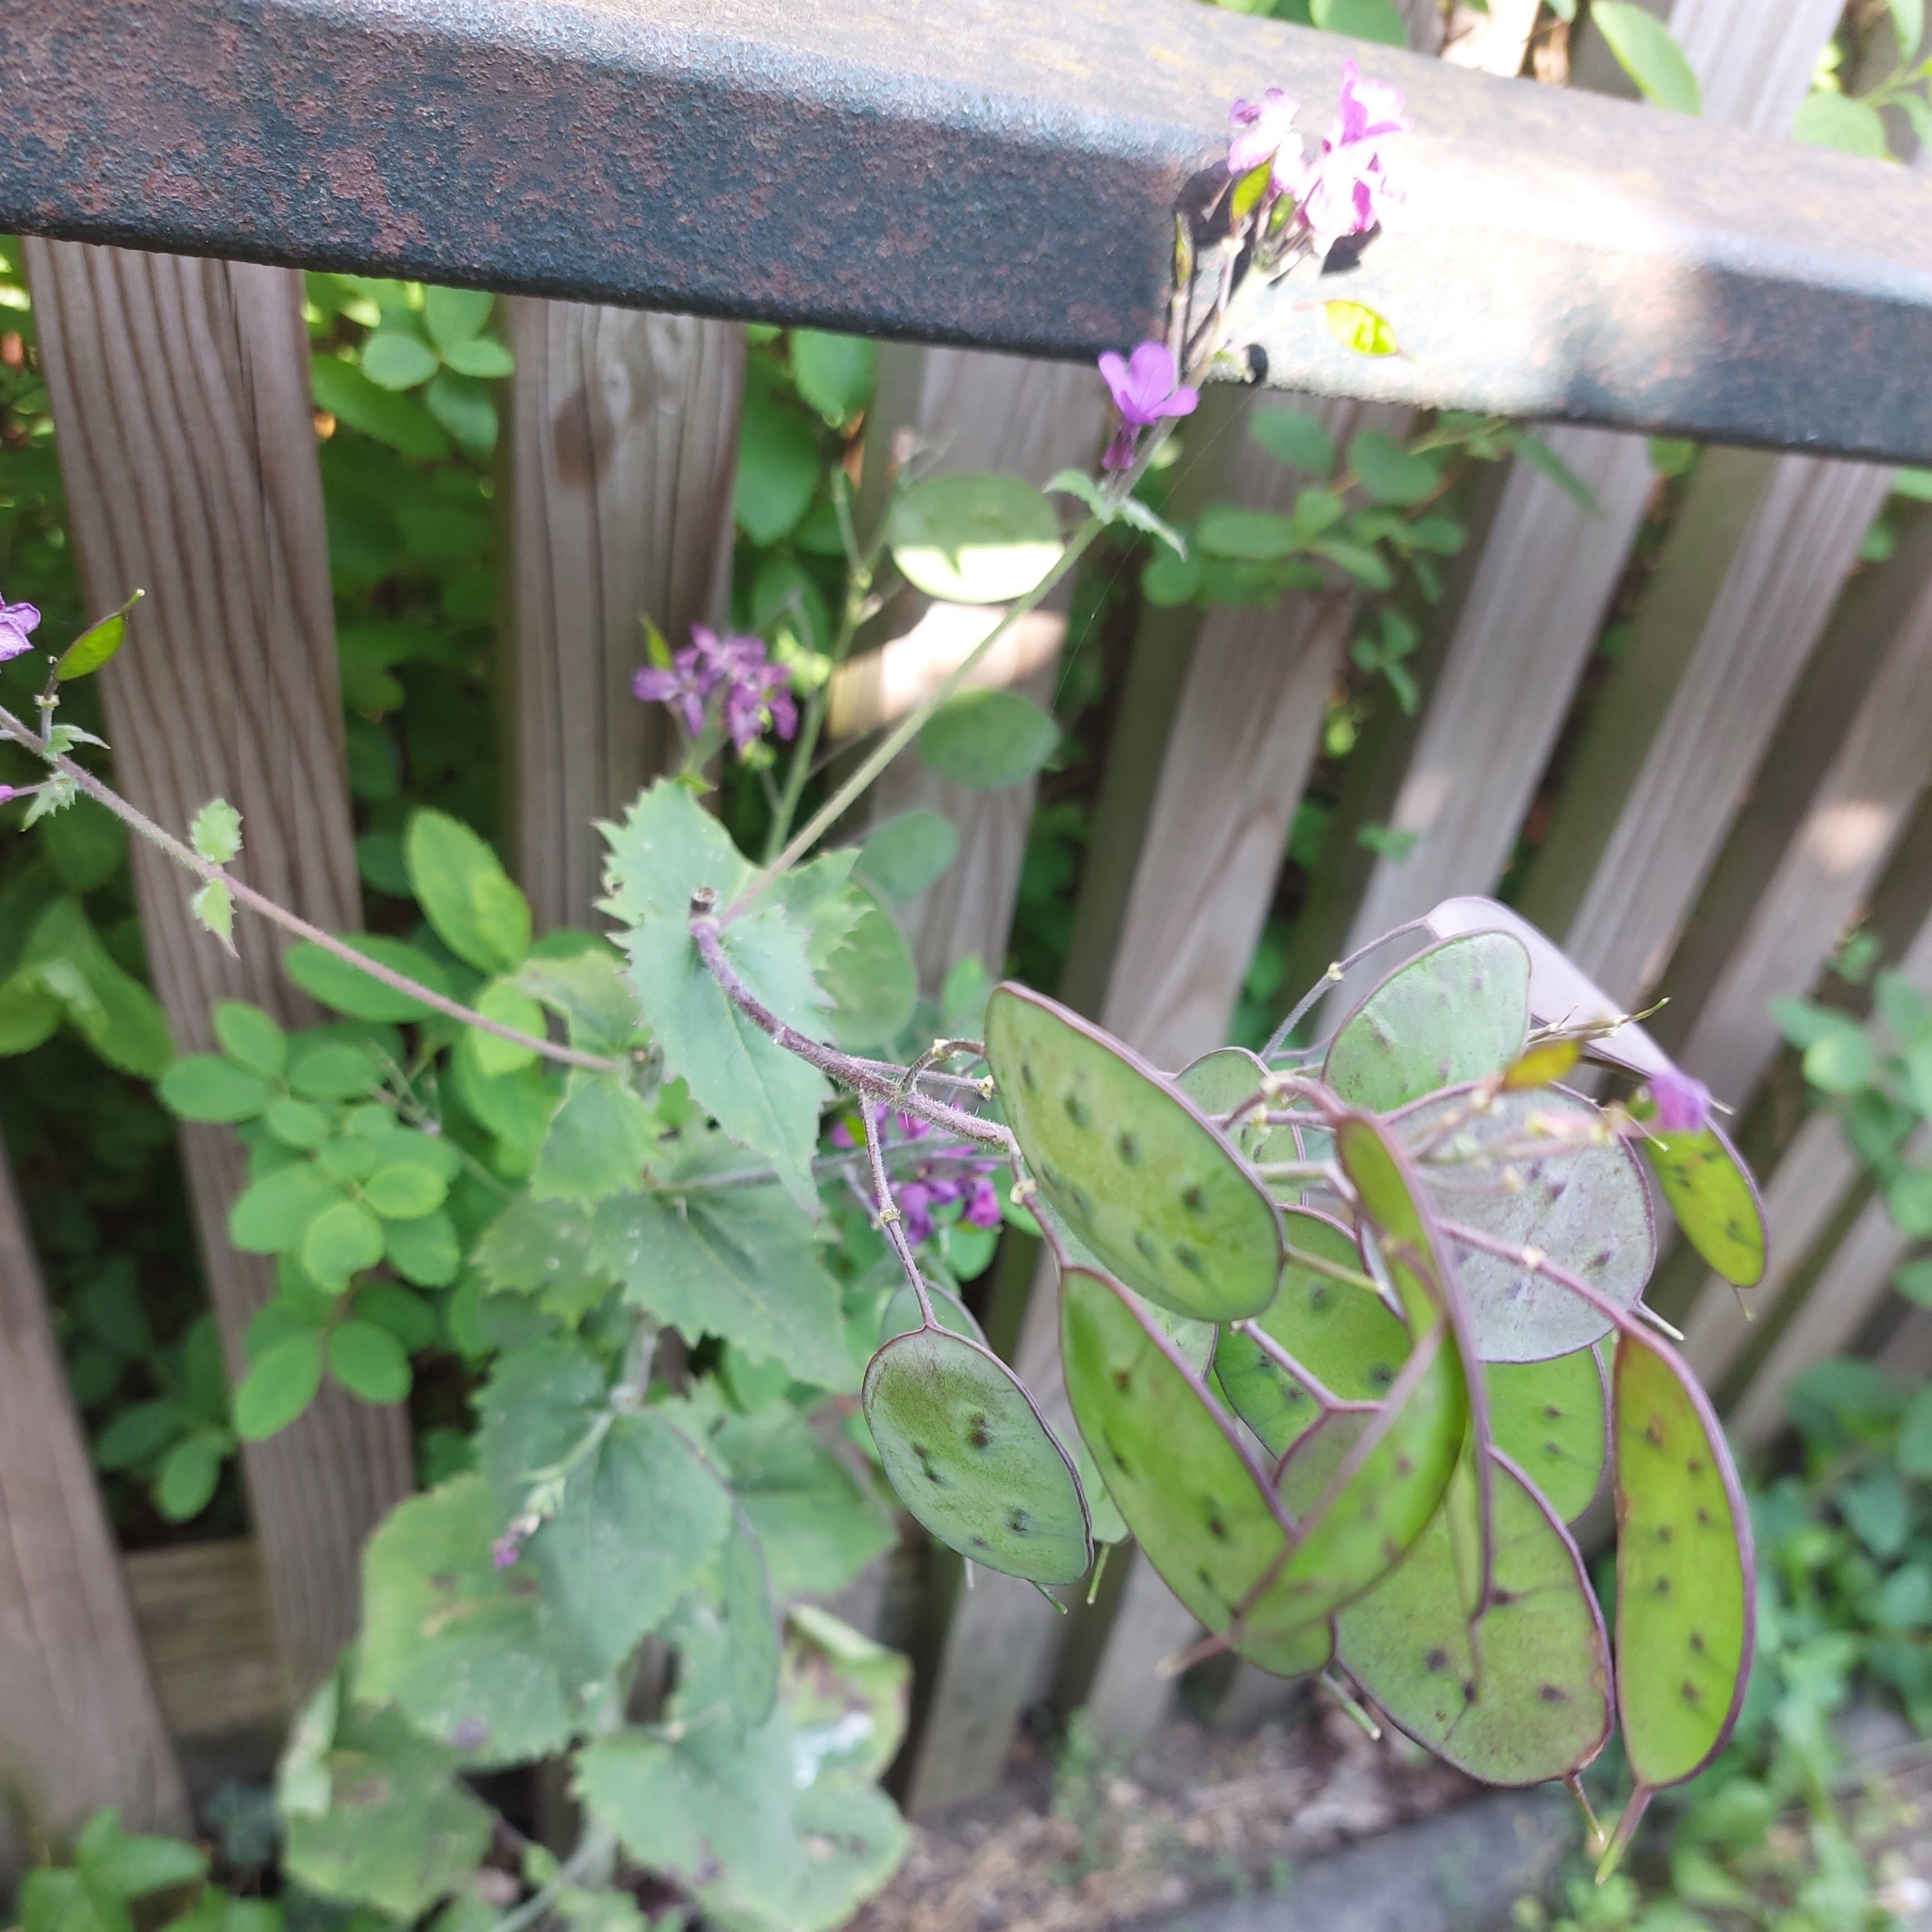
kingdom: Plantae
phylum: Tracheophyta
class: Magnoliopsida
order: Brassicales
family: Brassicaceae
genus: Lunaria
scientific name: Lunaria annua
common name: Honesty
